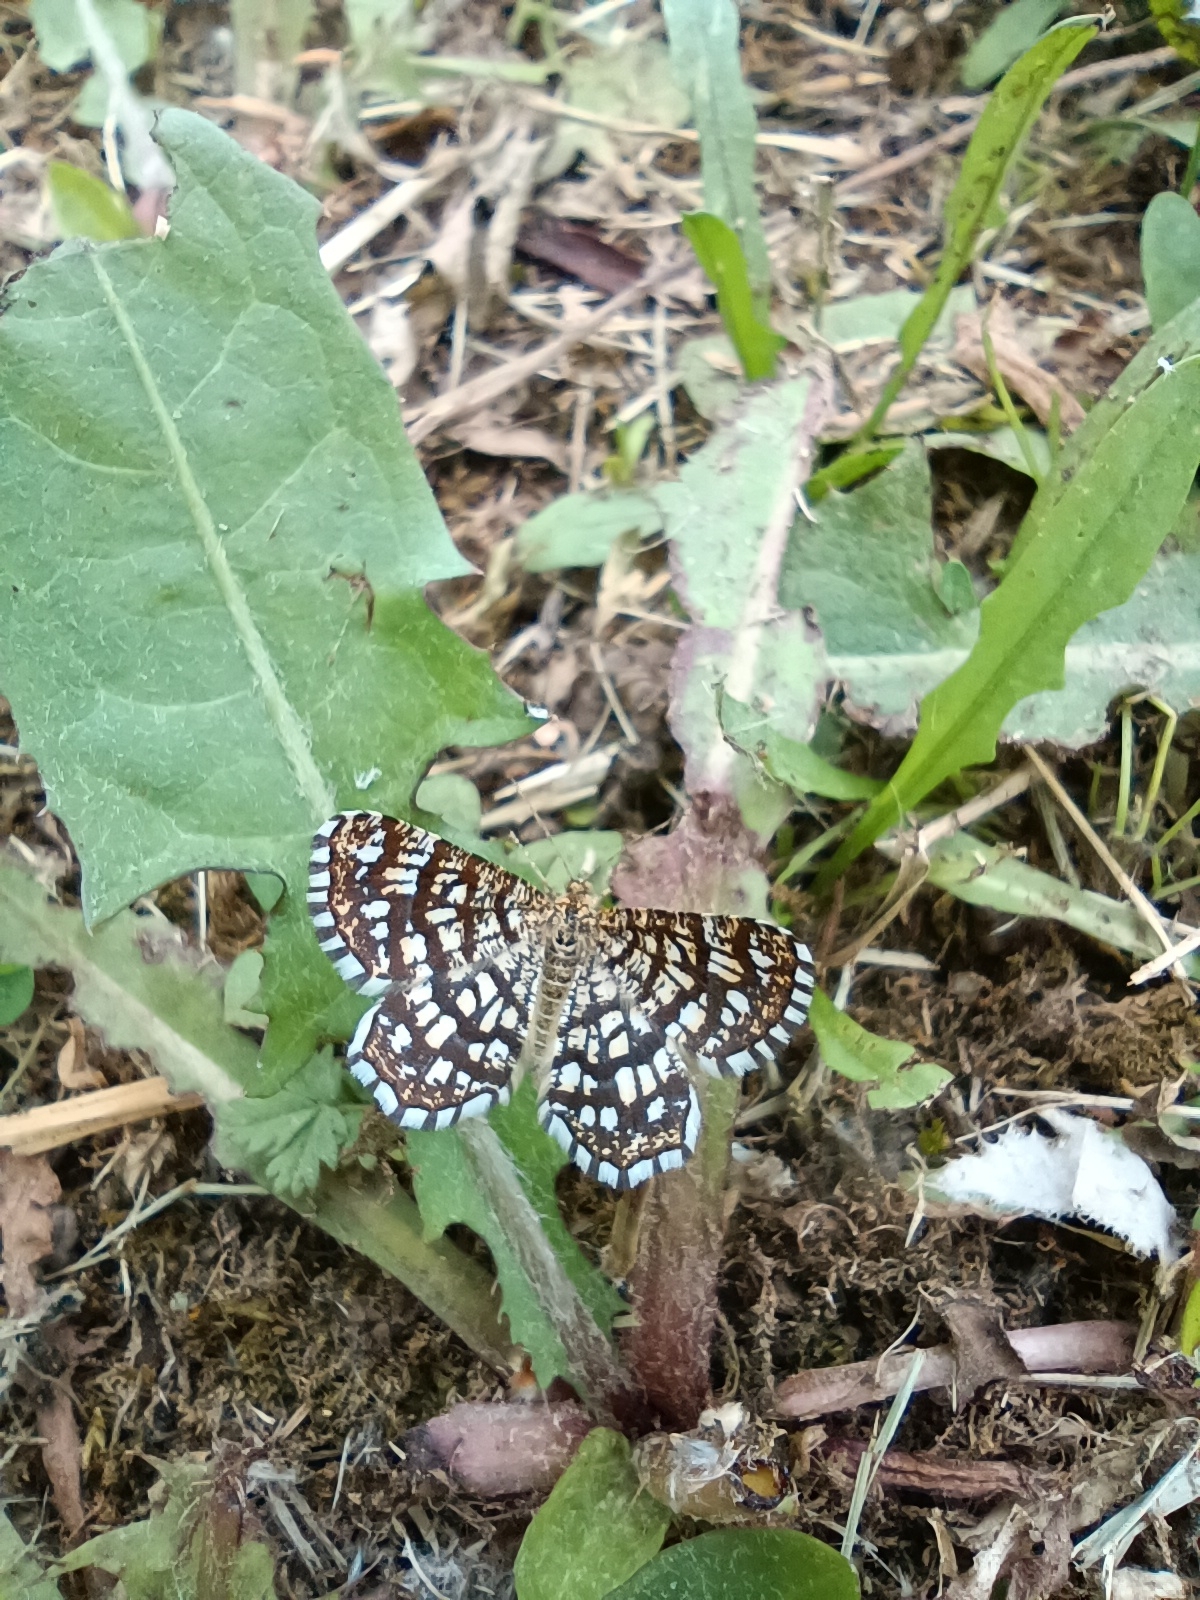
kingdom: Animalia
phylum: Arthropoda
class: Insecta
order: Lepidoptera
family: Geometridae
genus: Chiasmia
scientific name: Chiasmia clathrata
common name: Latticed heath
